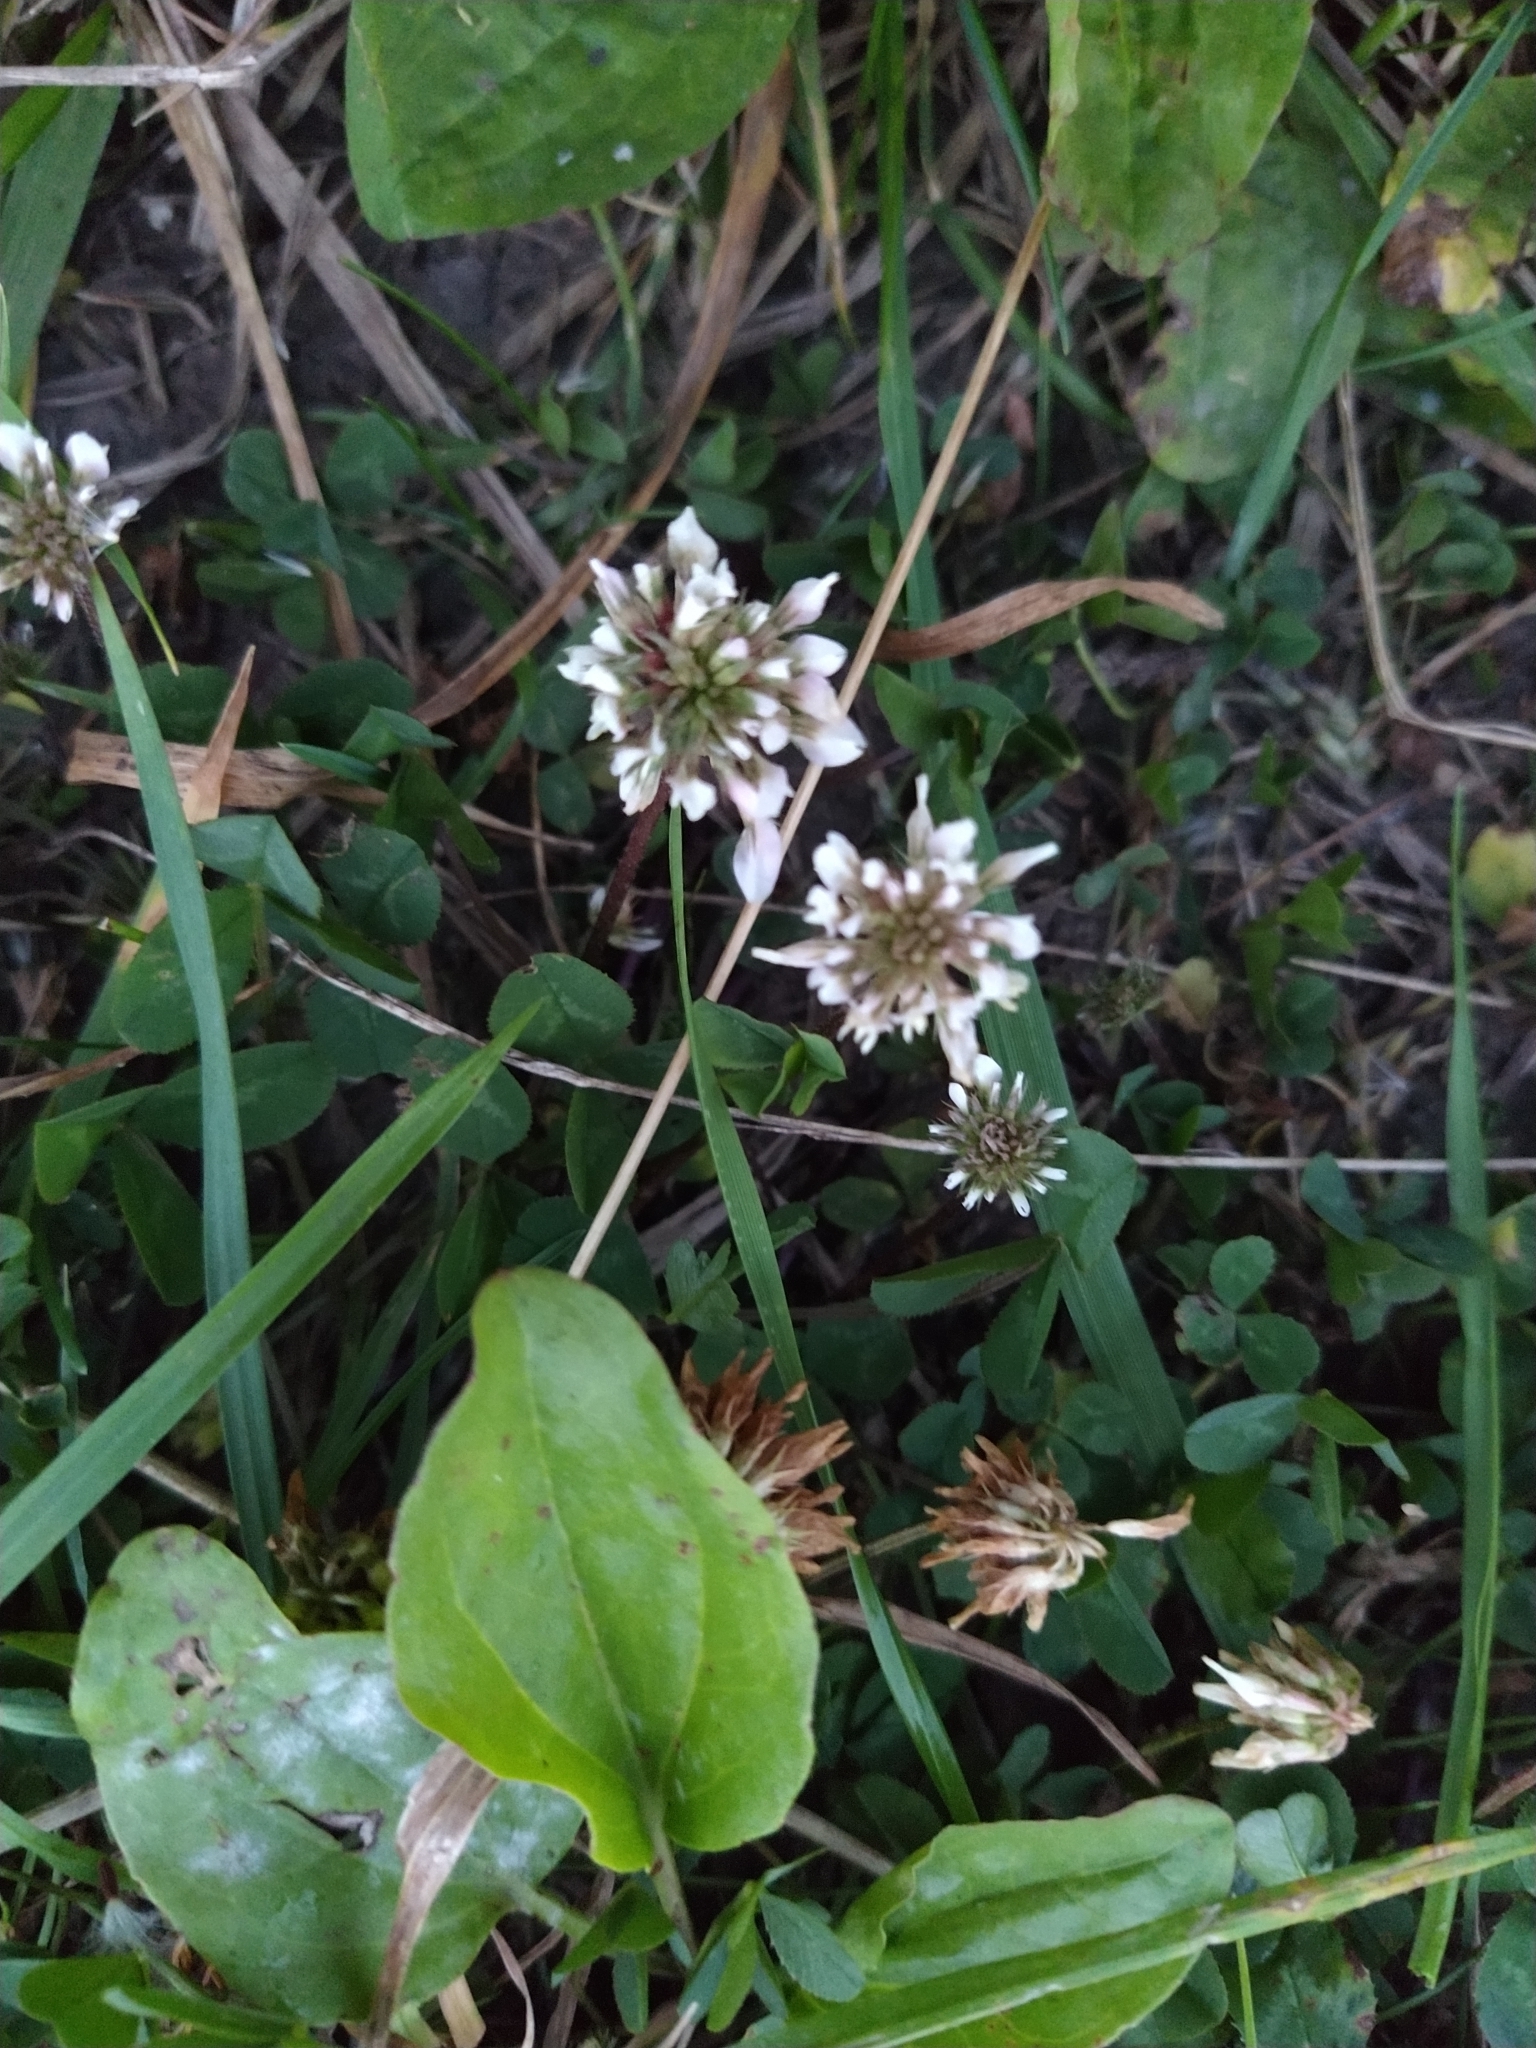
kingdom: Plantae
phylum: Tracheophyta
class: Magnoliopsida
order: Fabales
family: Fabaceae
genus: Trifolium
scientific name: Trifolium repens
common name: White clover
